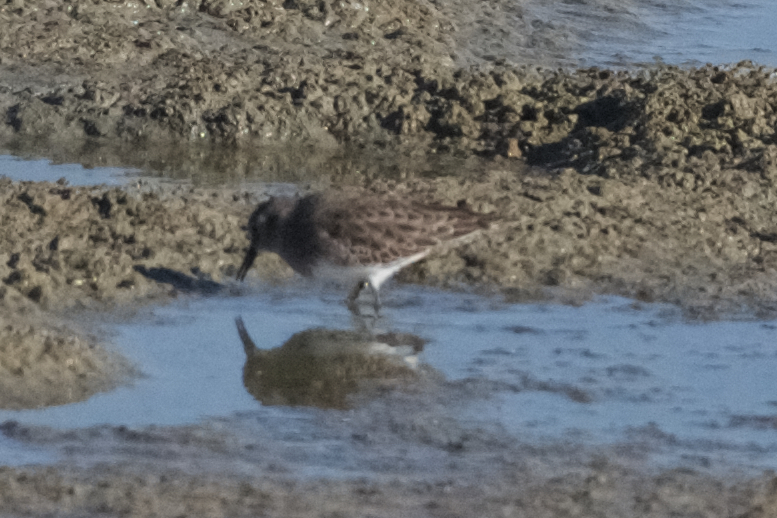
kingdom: Animalia
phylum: Chordata
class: Aves
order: Charadriiformes
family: Scolopacidae
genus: Calidris
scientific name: Calidris minutilla
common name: Least sandpiper
